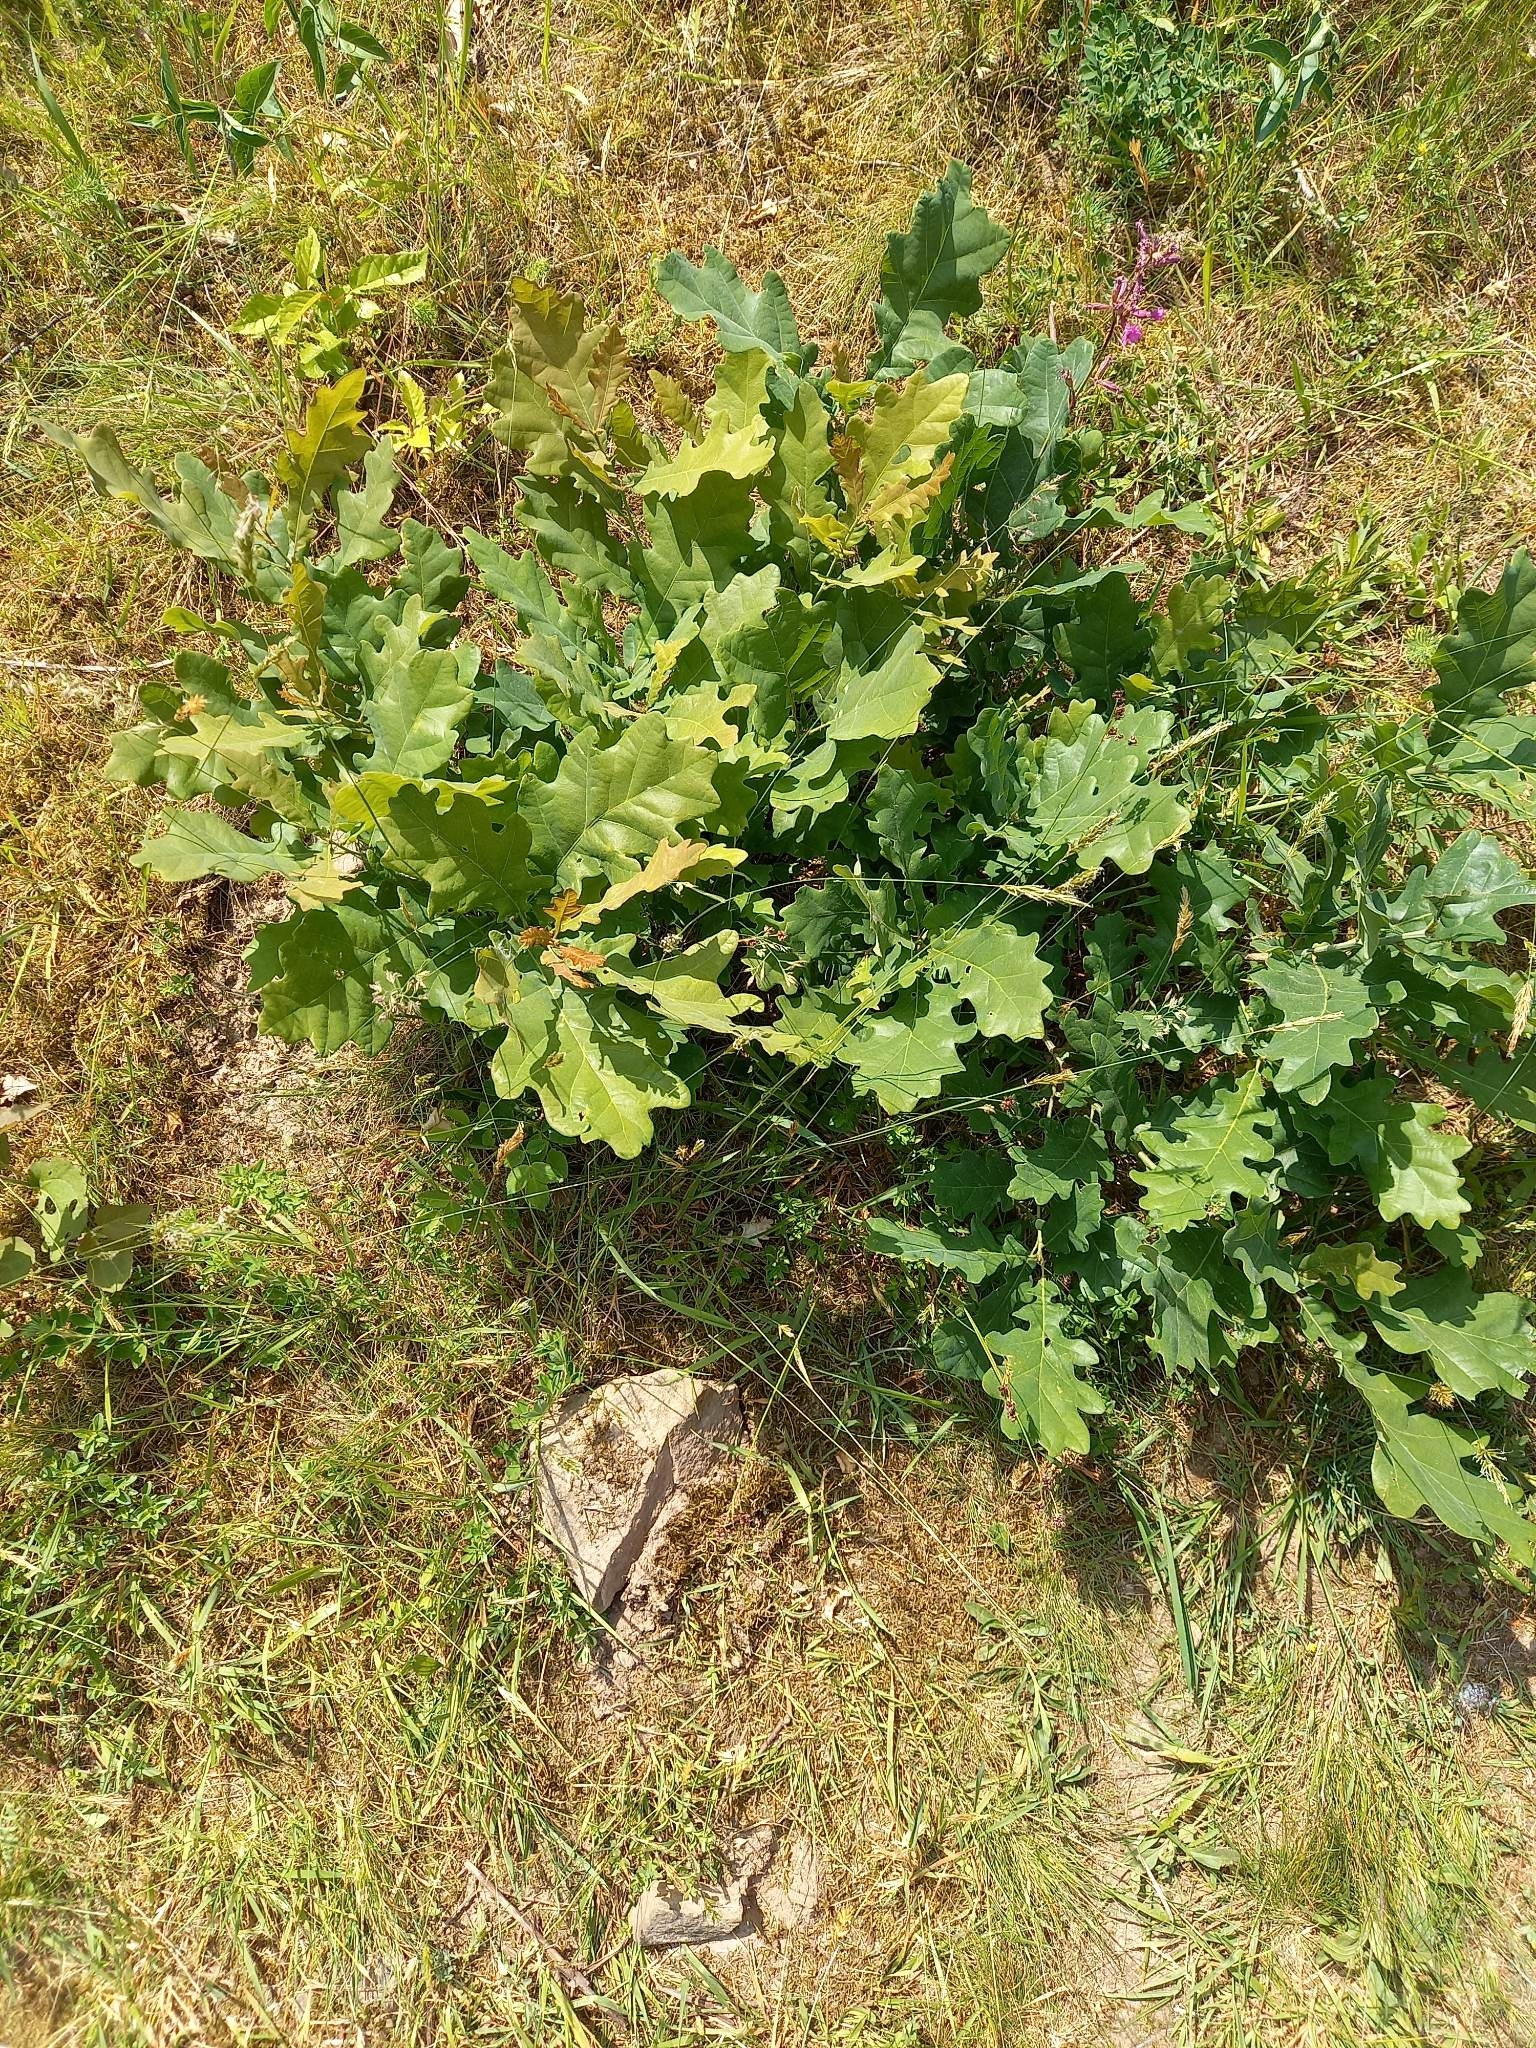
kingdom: Animalia
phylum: Arthropoda
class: Insecta
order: Hymenoptera
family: Formicidae
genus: Tapinoma
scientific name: Tapinoma subboreale
